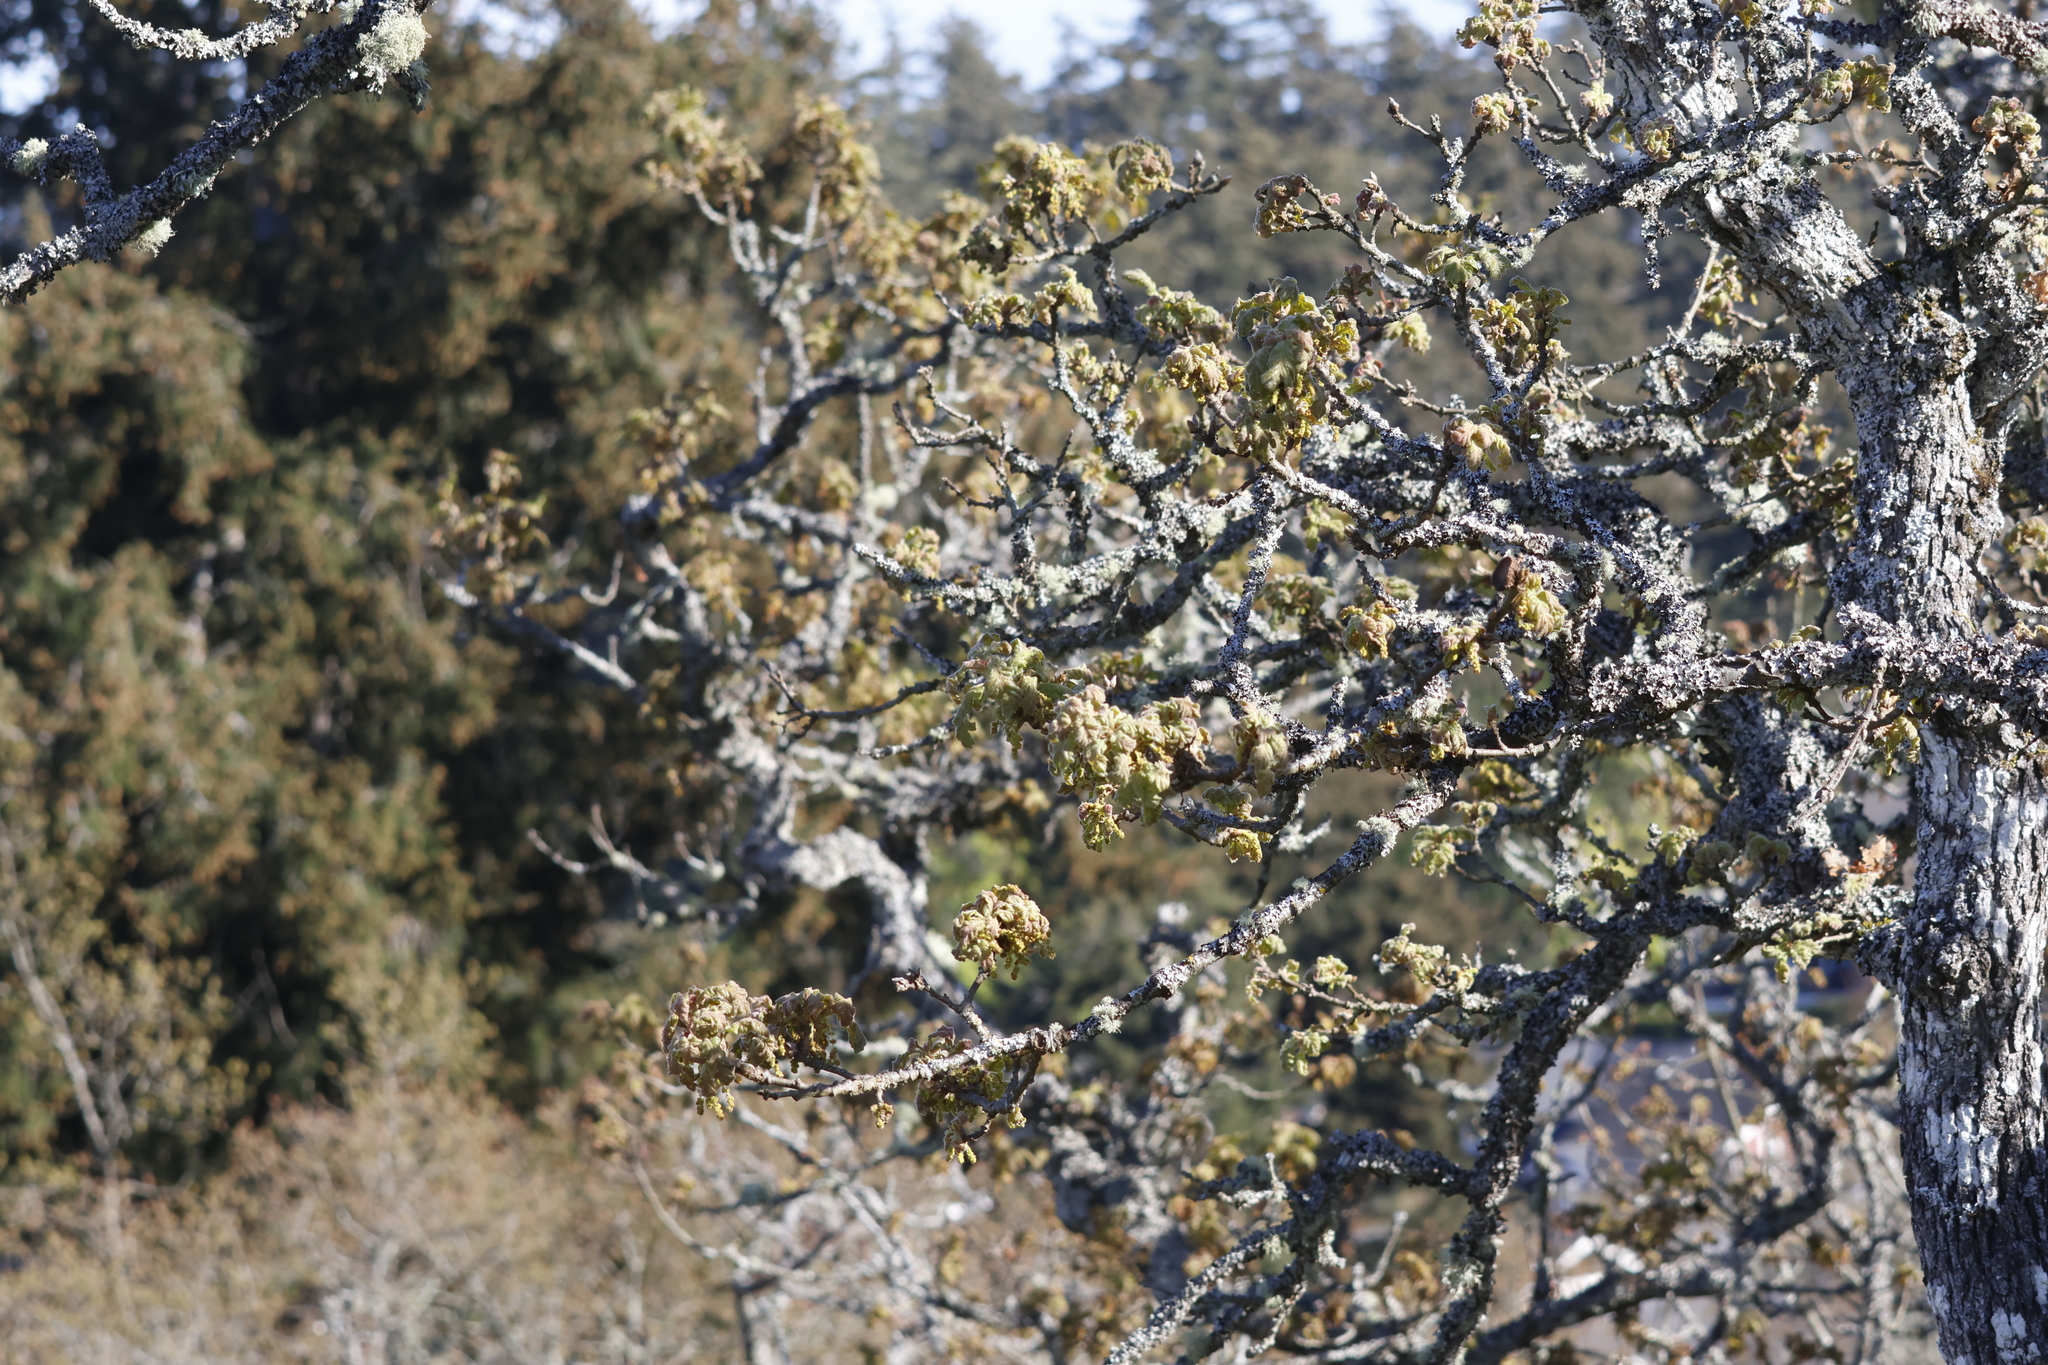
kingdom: Plantae
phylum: Tracheophyta
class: Magnoliopsida
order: Fagales
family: Fagaceae
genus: Quercus
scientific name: Quercus garryana
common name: Garry oak
